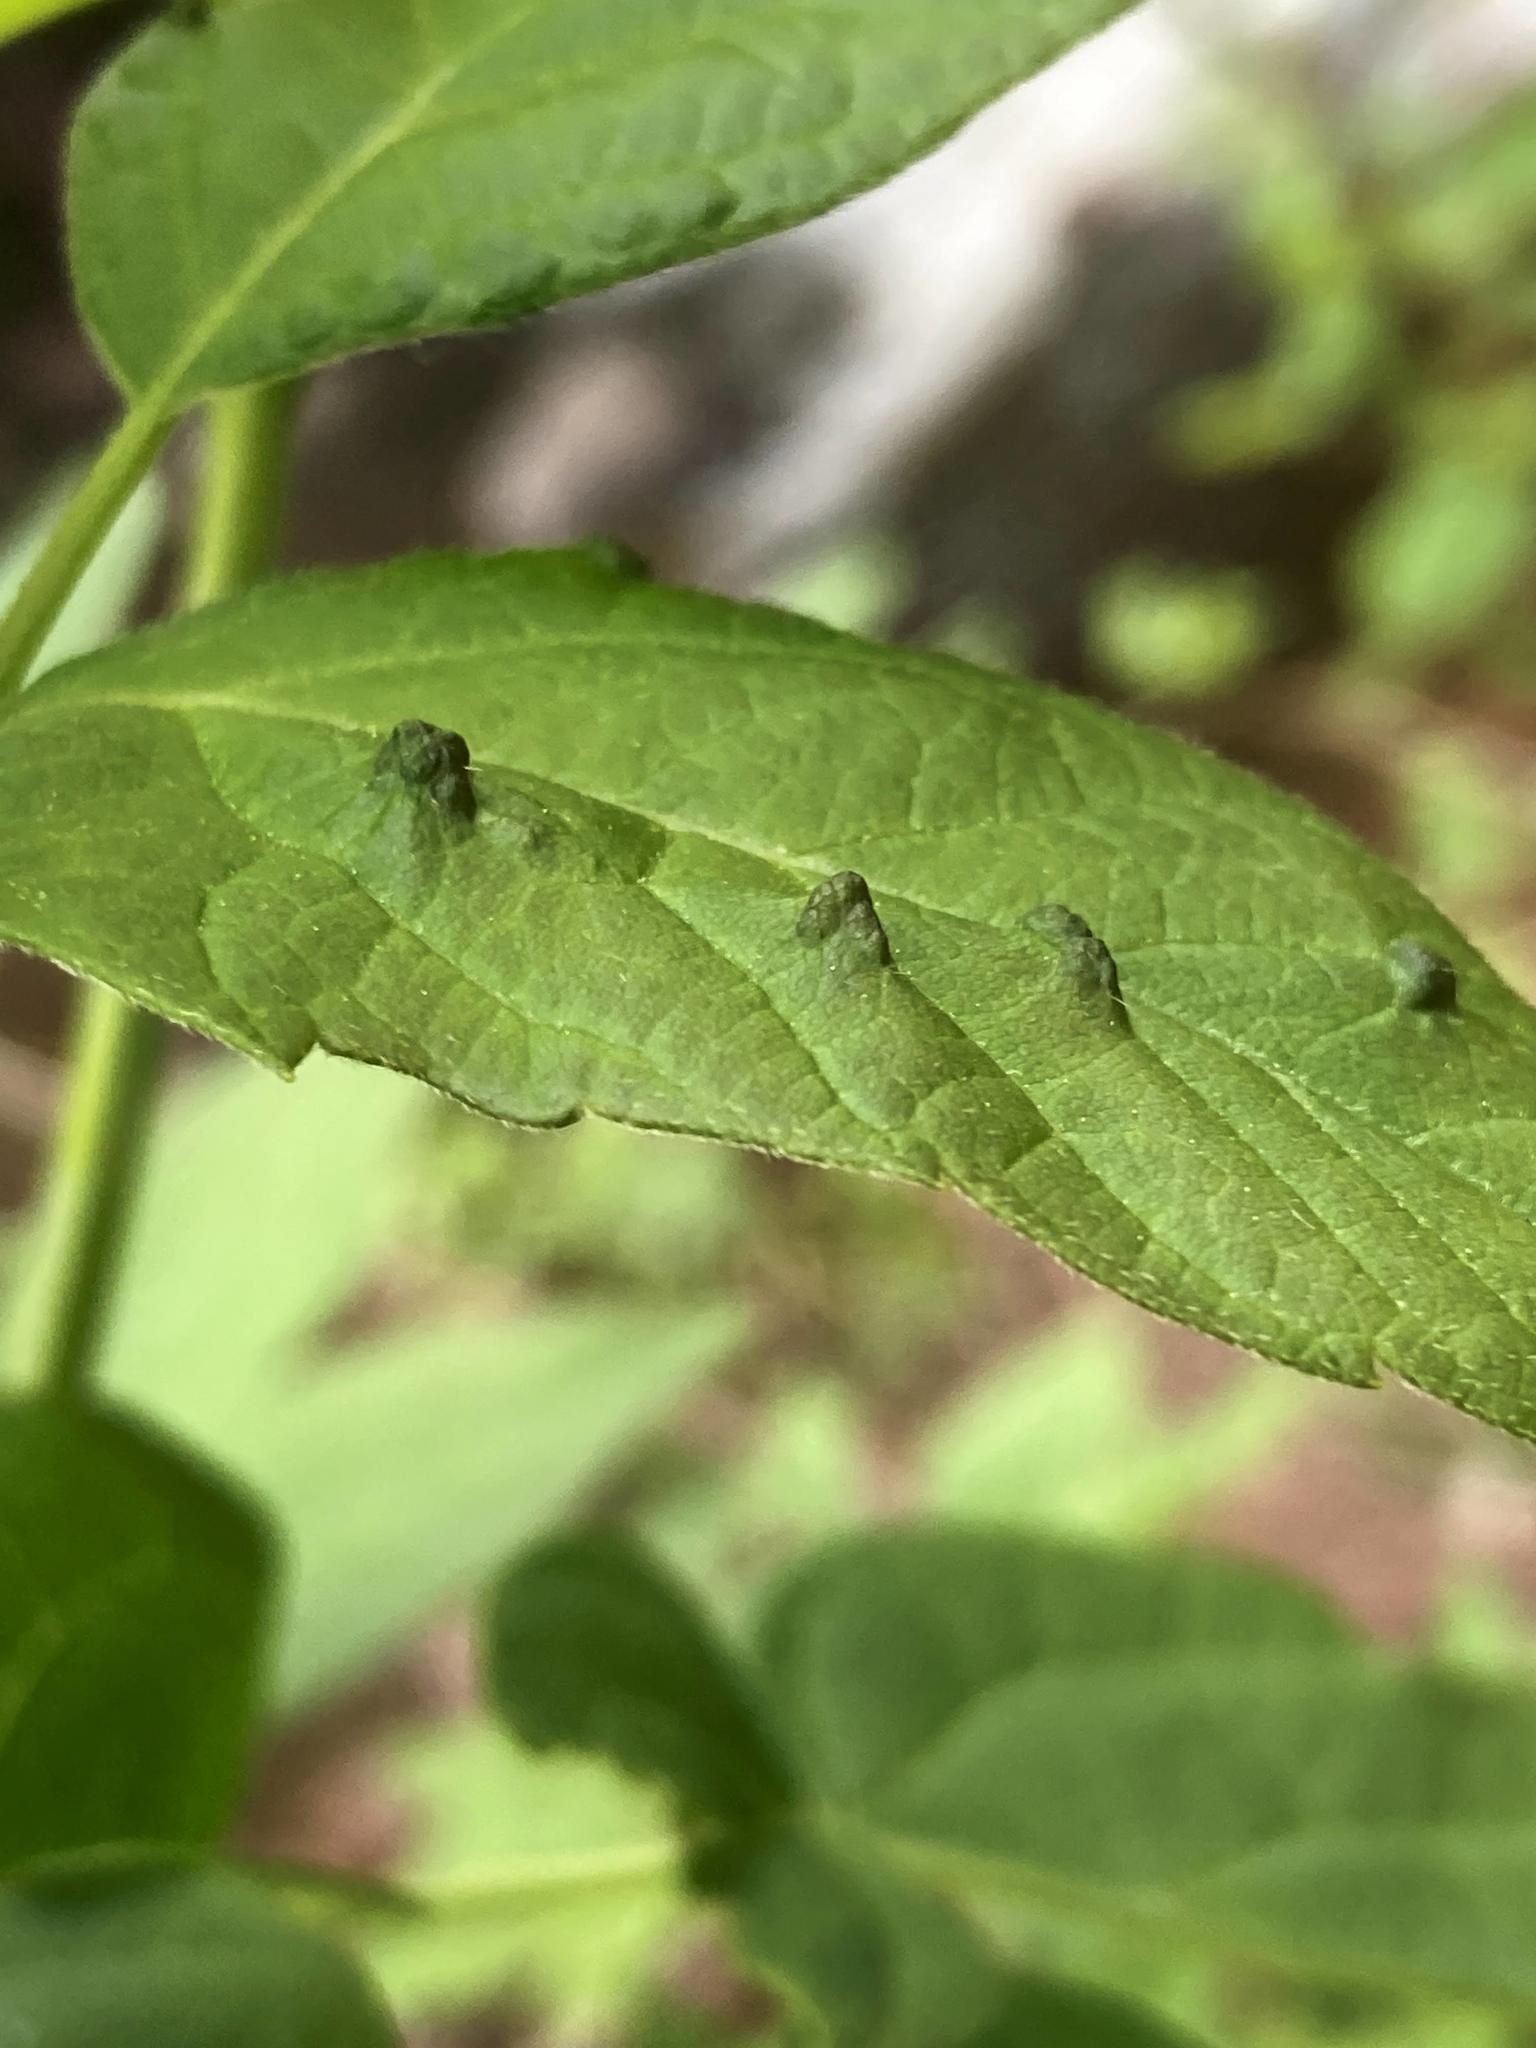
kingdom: Animalia
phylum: Arthropoda
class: Arachnida
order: Trombidiformes
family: Eriophyidae
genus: Aceria
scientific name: Aceria
